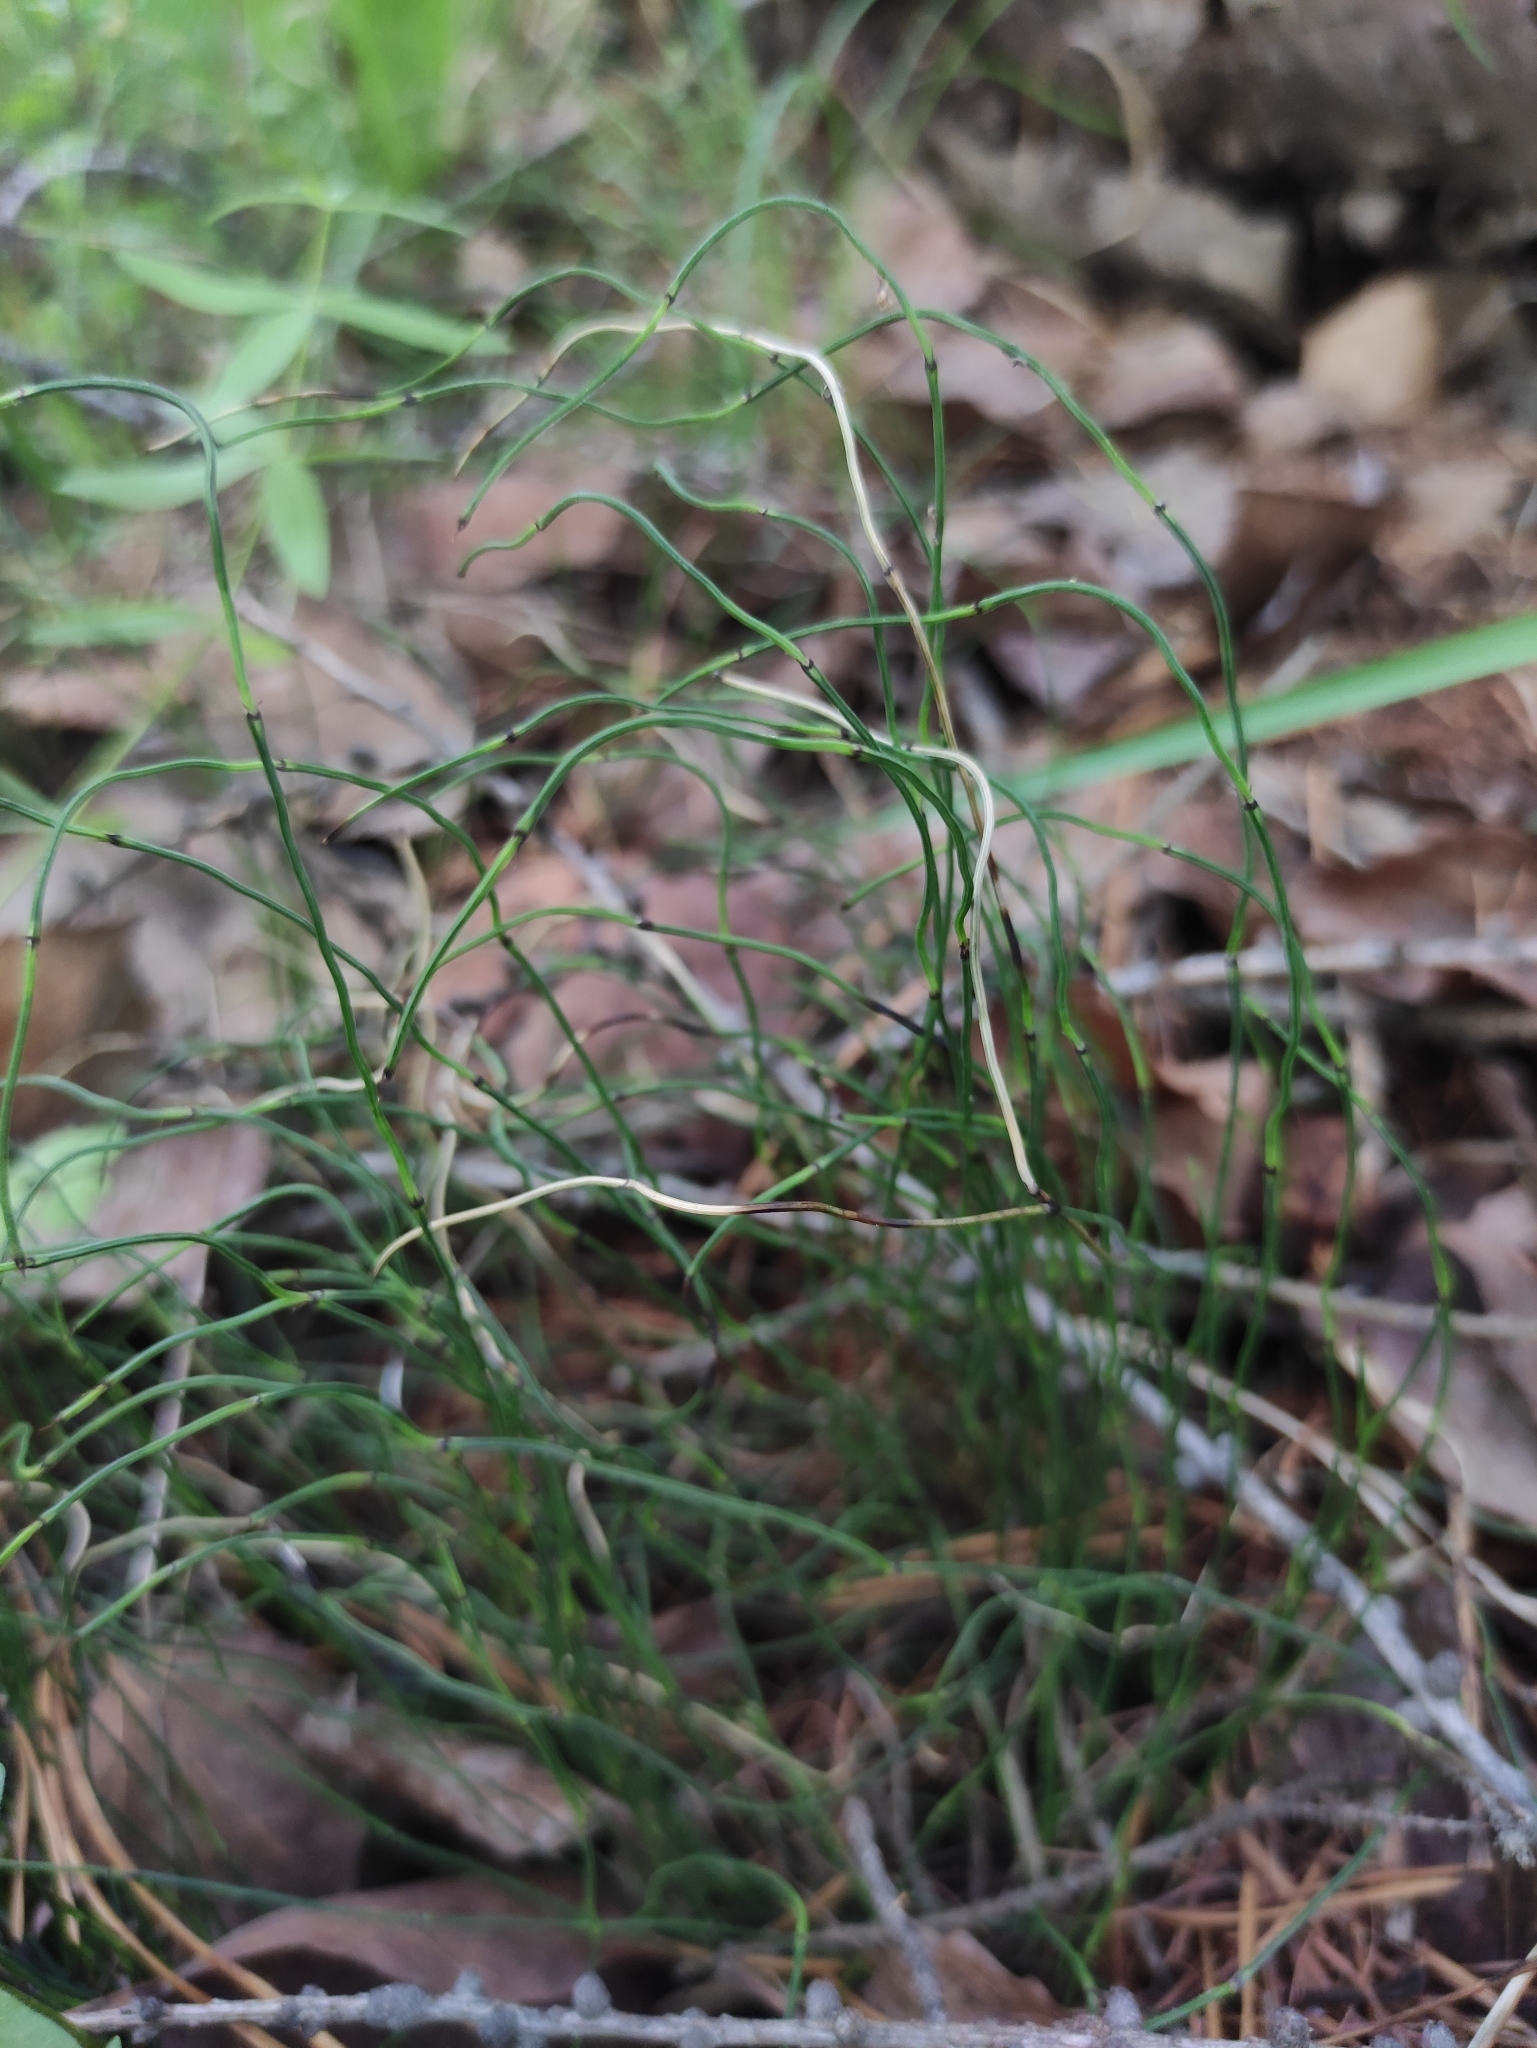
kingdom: Plantae
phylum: Tracheophyta
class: Polypodiopsida
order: Equisetales
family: Equisetaceae
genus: Equisetum
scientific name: Equisetum scirpoides
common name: Delicate horsetail
